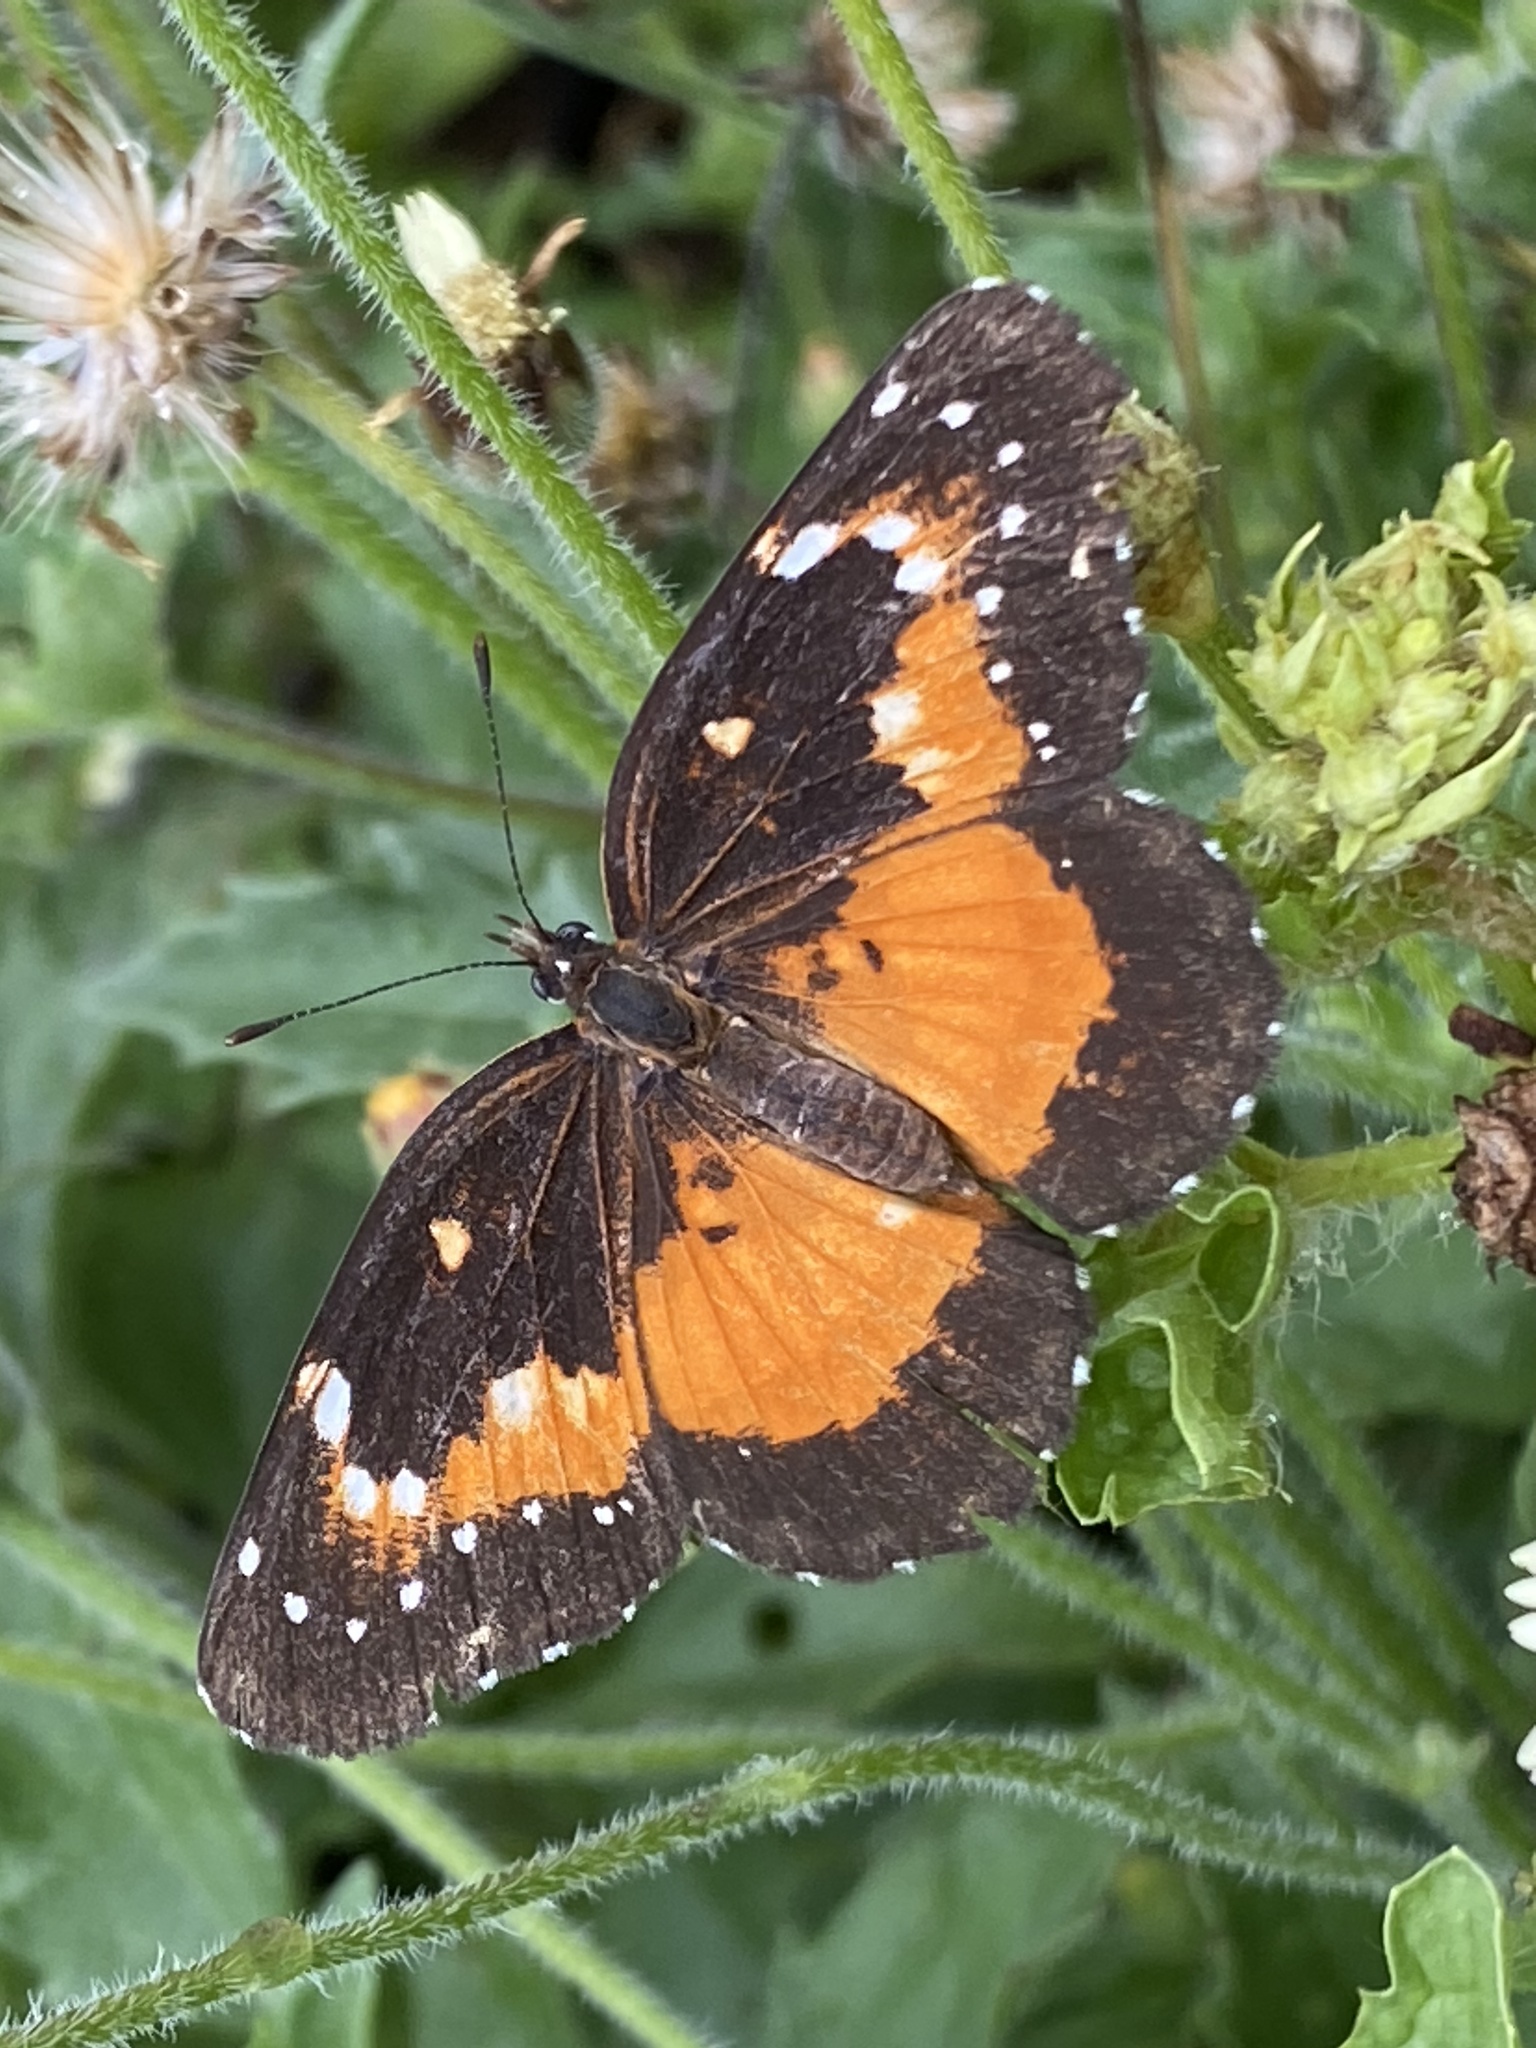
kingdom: Animalia
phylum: Arthropoda
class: Insecta
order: Lepidoptera
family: Nymphalidae
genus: Chlosyne
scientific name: Chlosyne lacinia
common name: Bordered patch
